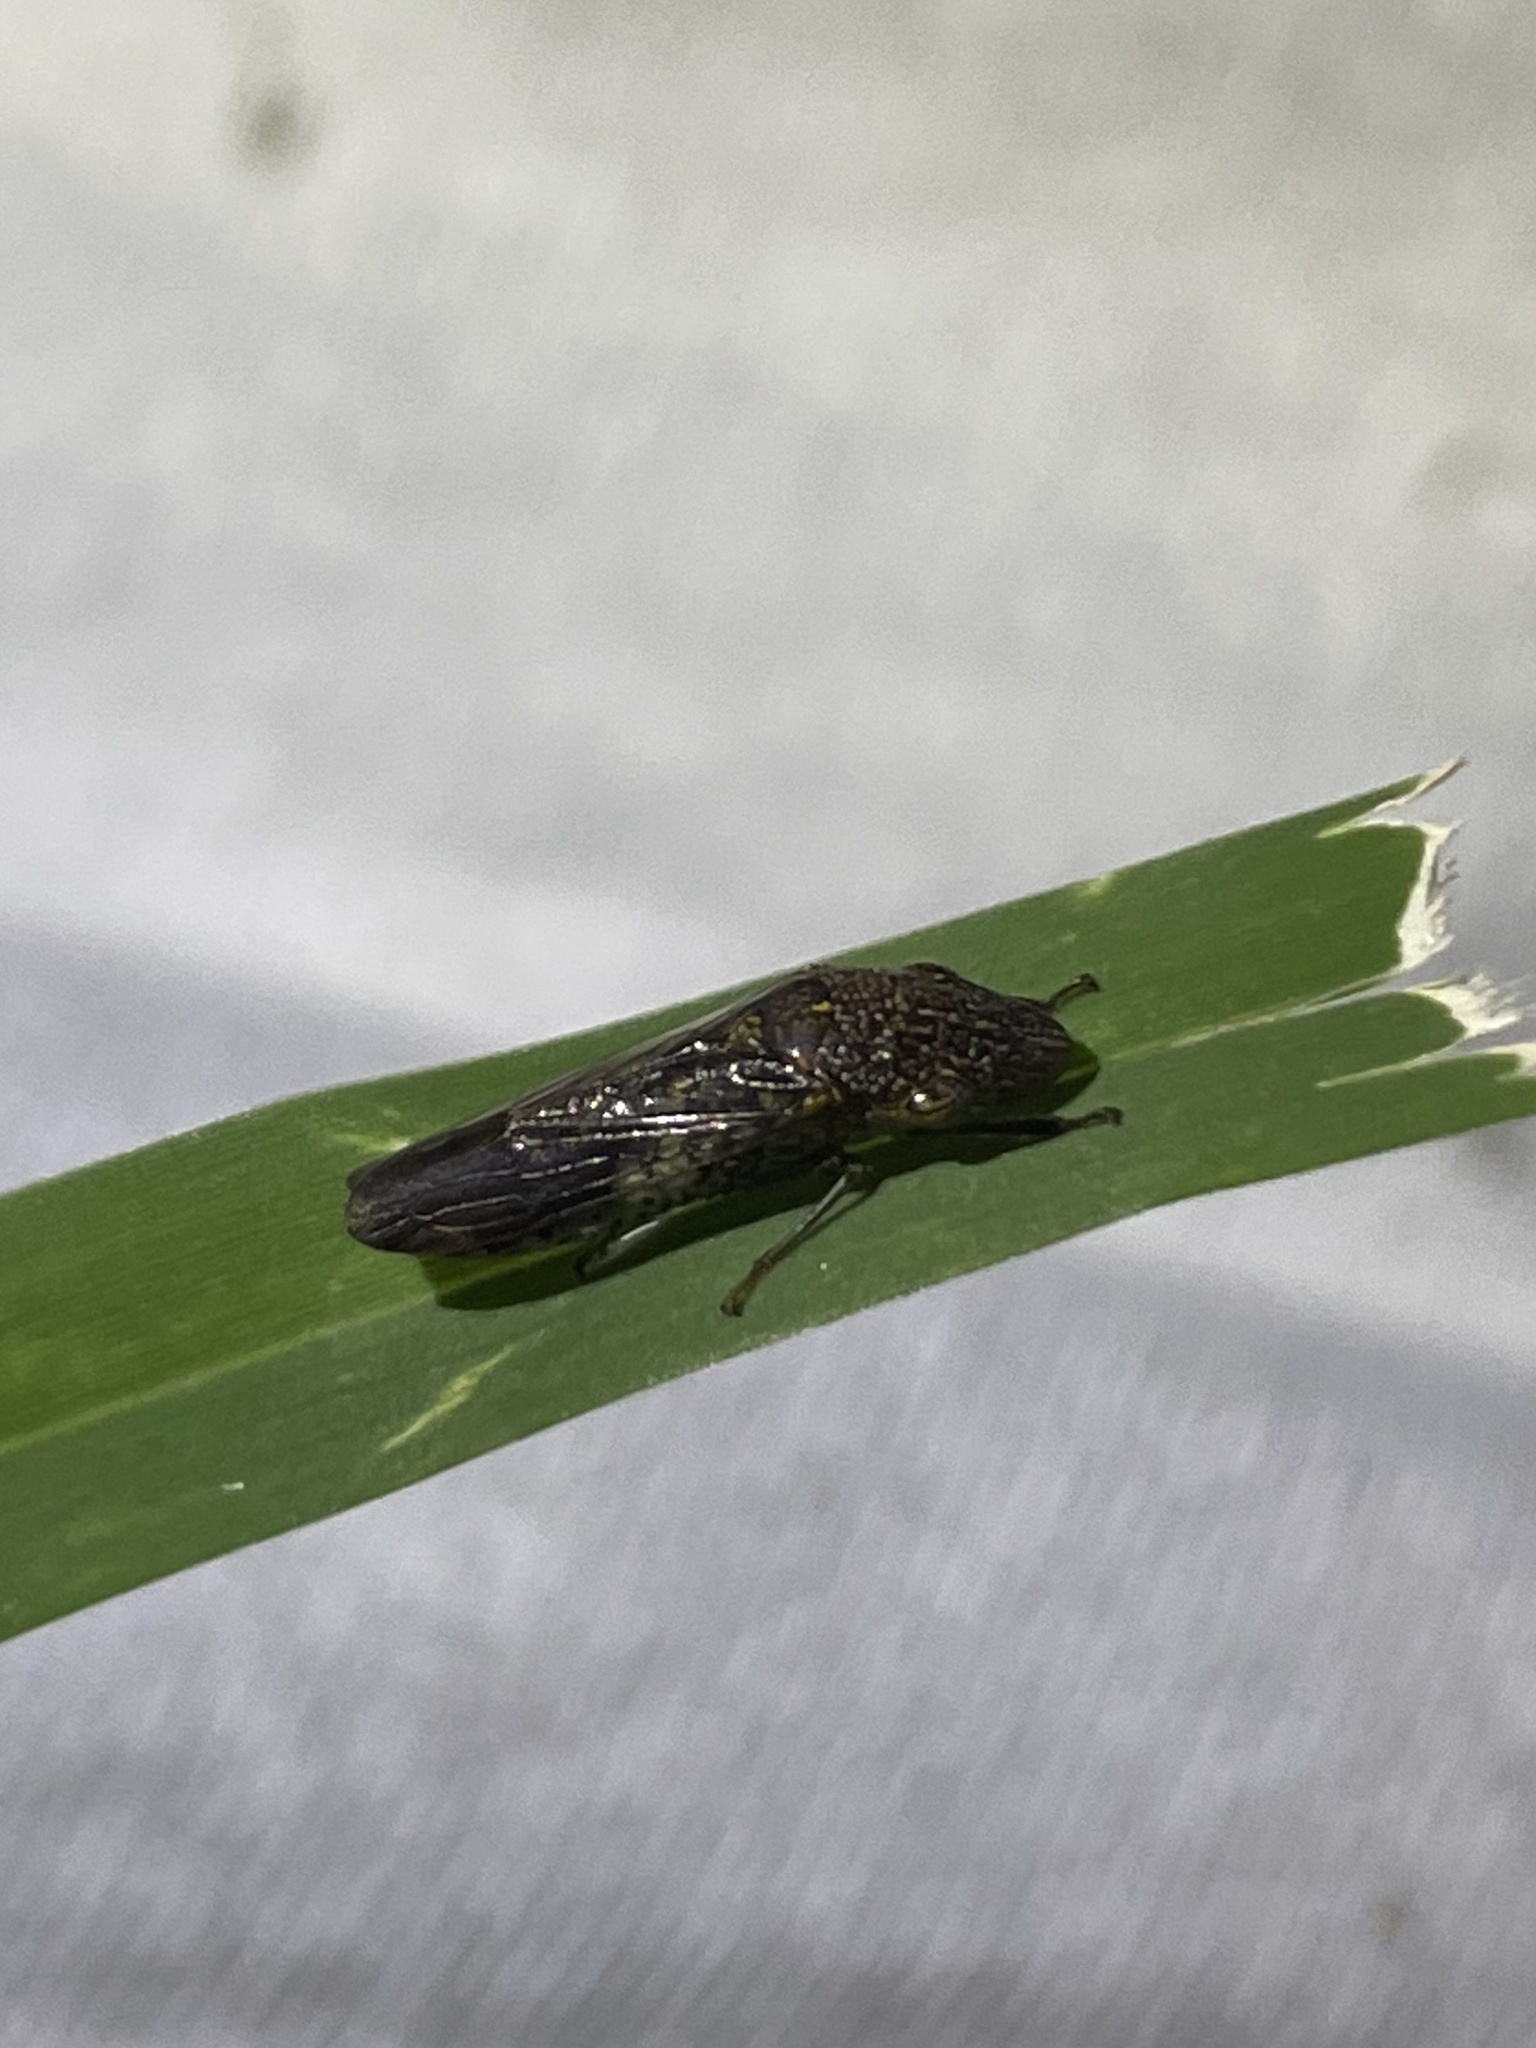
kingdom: Animalia
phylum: Arthropoda
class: Insecta
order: Hemiptera
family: Cicadellidae
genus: Homalodisca
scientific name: Homalodisca vitripennis
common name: Glassy-winged sharpshooter
